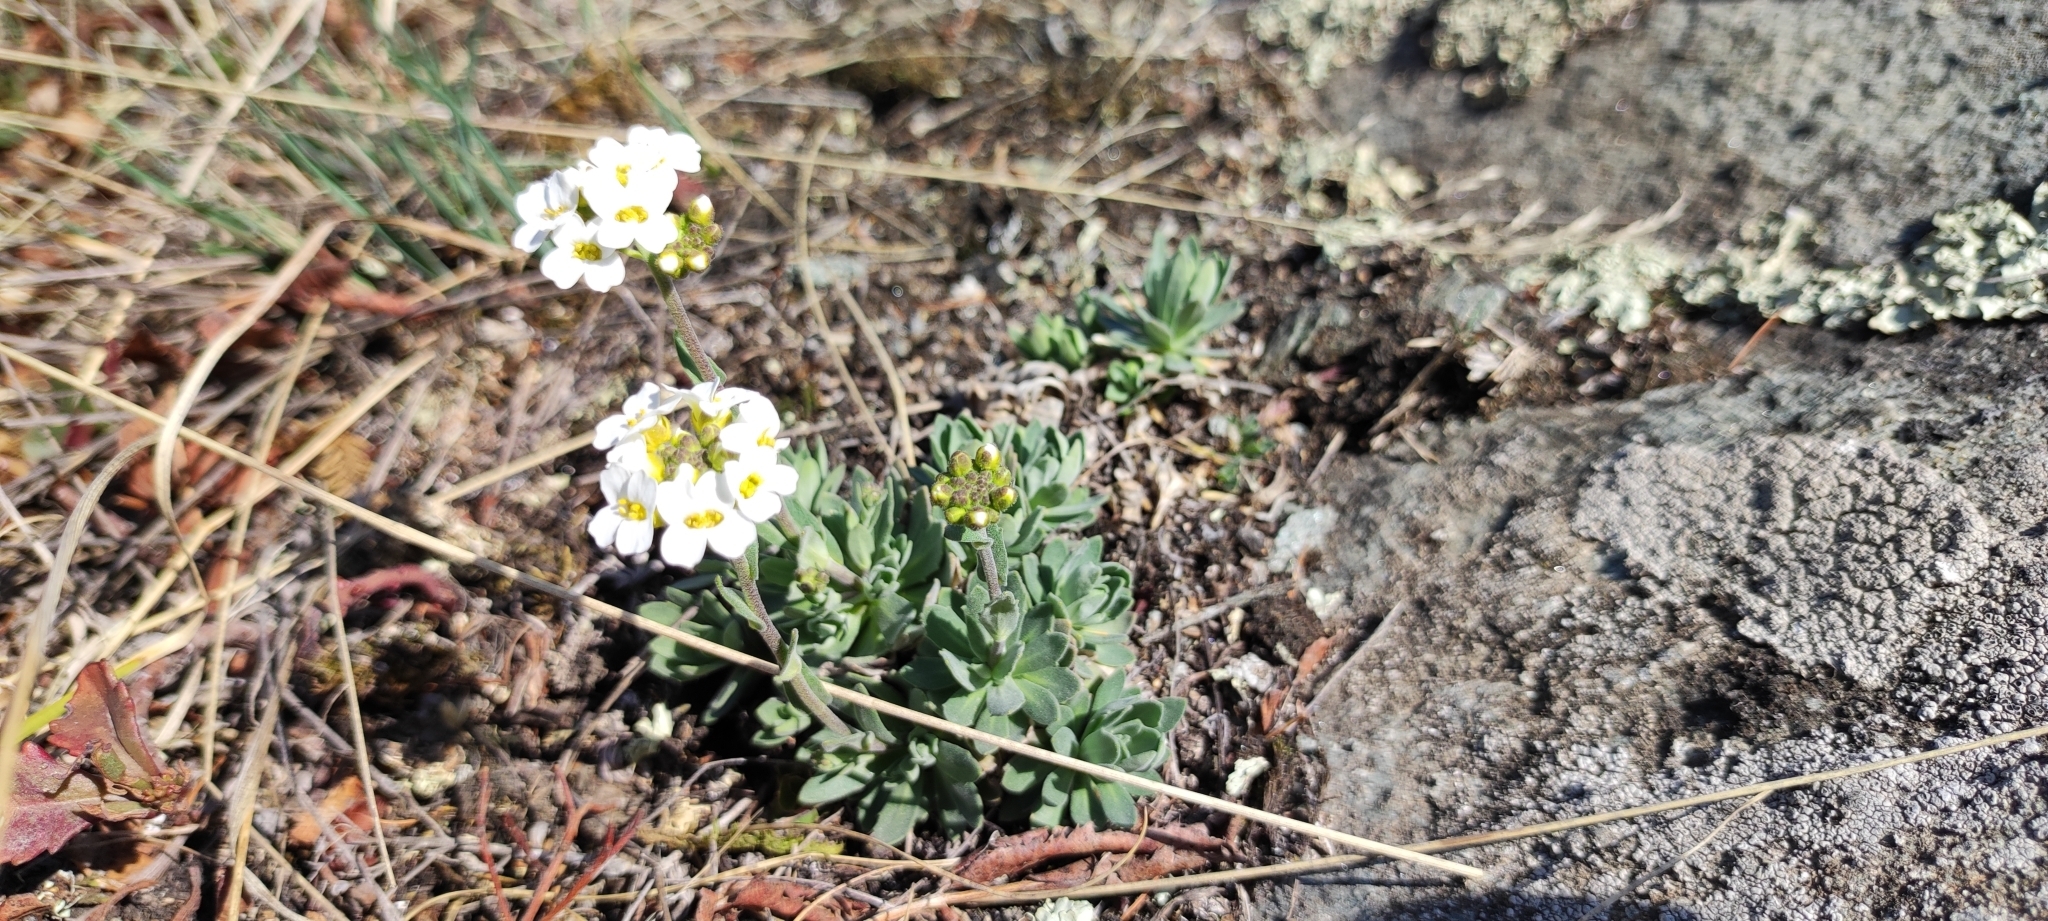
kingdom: Plantae
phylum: Tracheophyta
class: Magnoliopsida
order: Brassicales
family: Brassicaceae
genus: Draba
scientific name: Draba hyperborea
